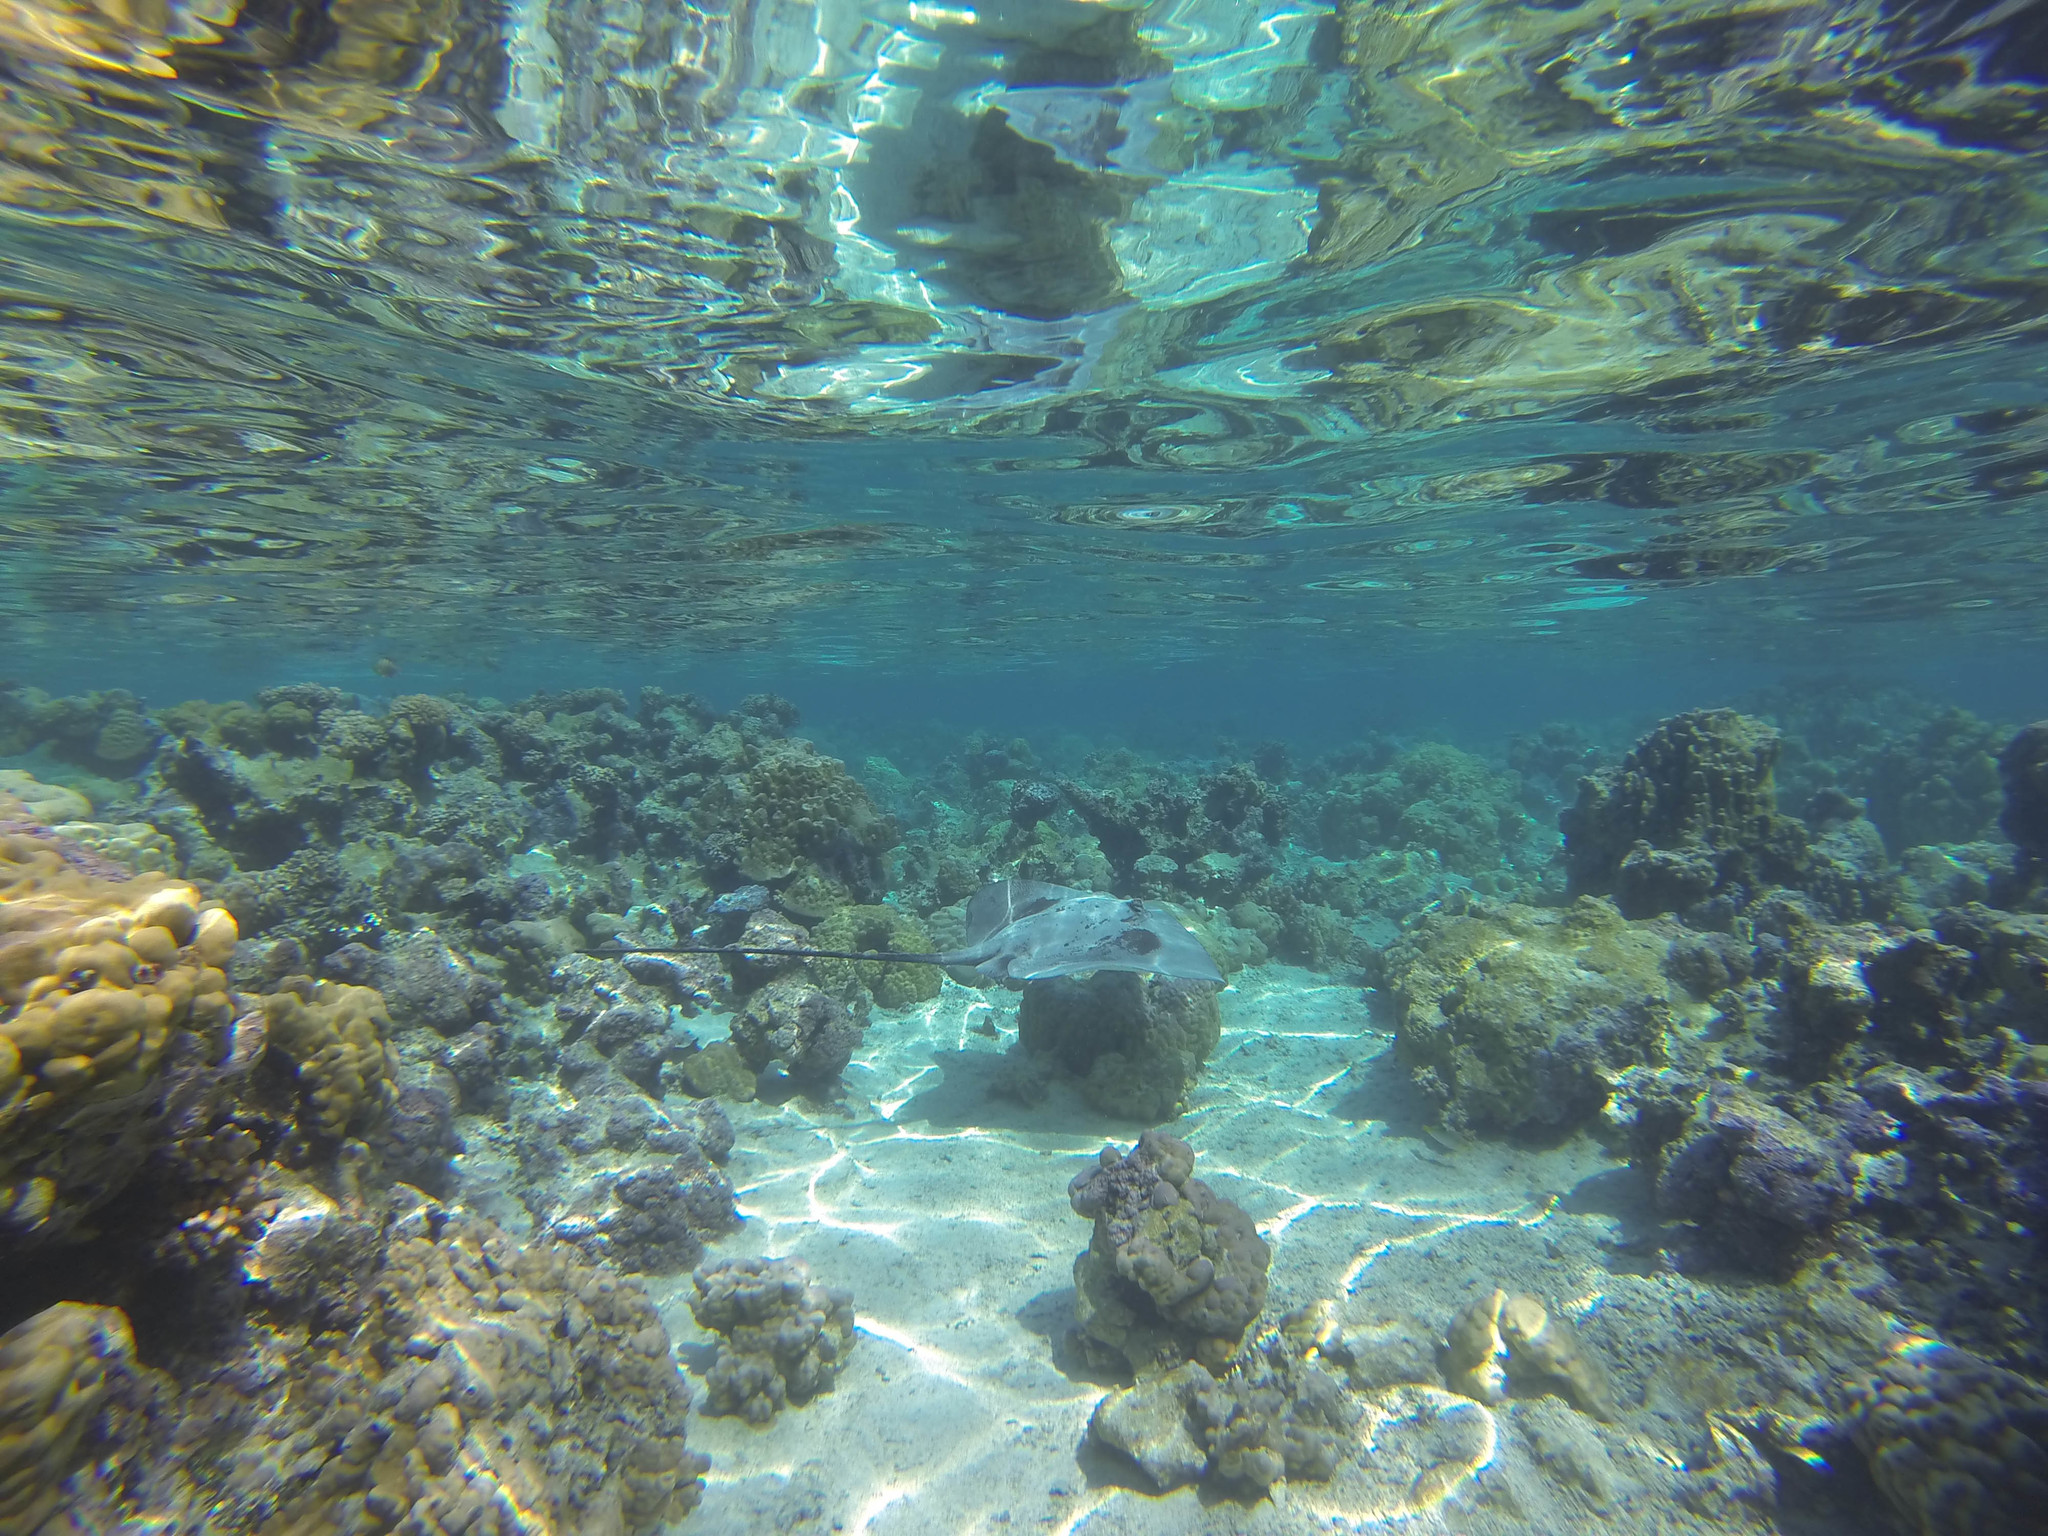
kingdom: Animalia
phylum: Chordata
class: Elasmobranchii
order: Myliobatiformes
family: Dasyatidae
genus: Pateobatis
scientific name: Pateobatis fai
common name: Pink whipray
